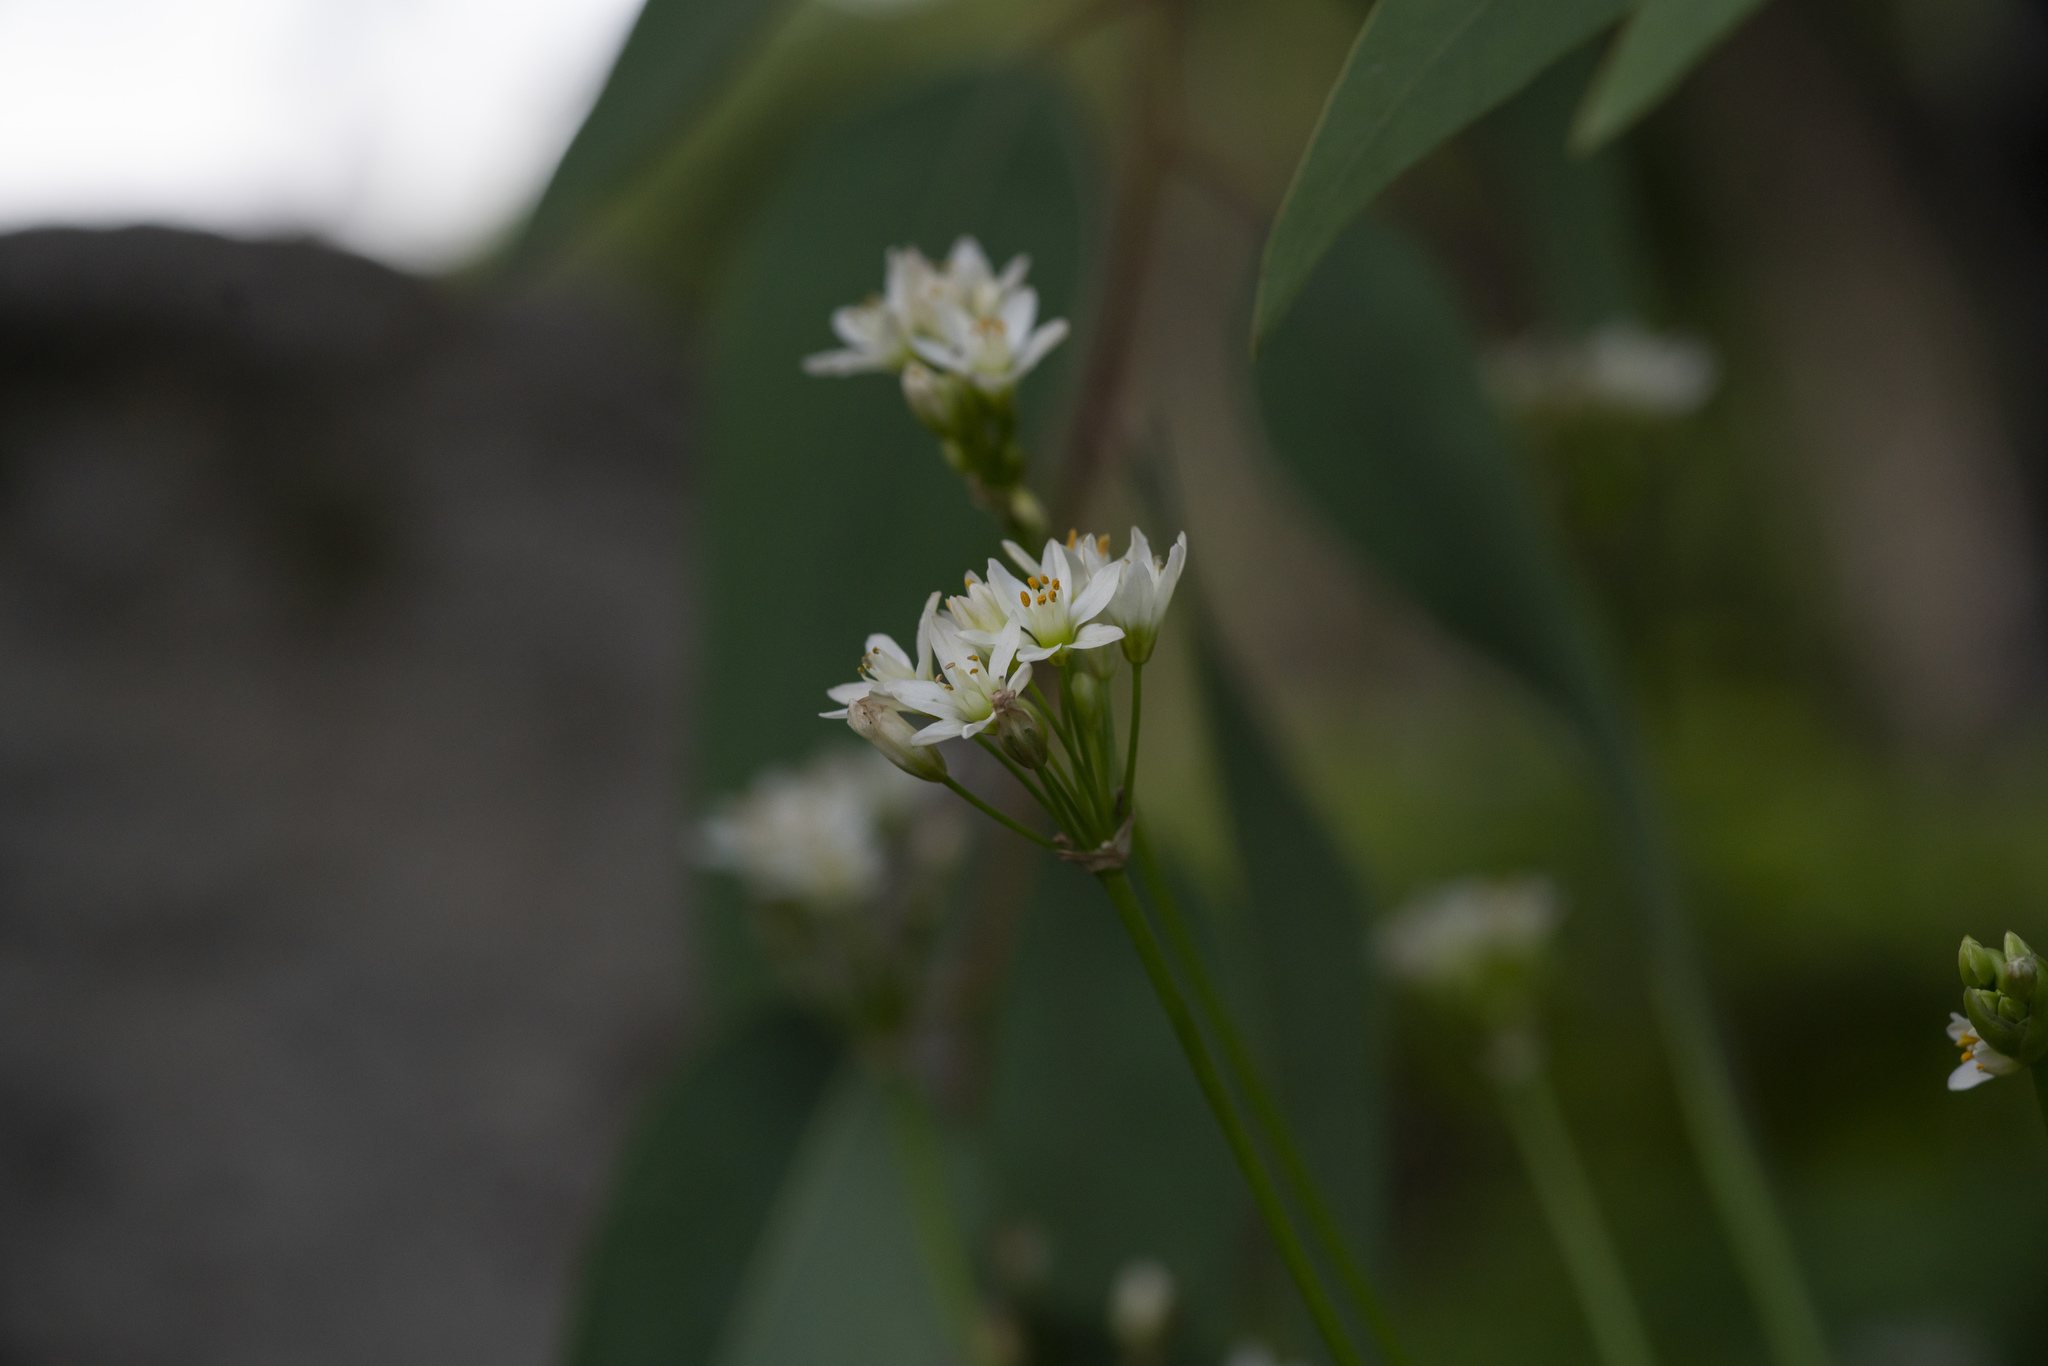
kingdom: Plantae
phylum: Tracheophyta
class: Liliopsida
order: Asparagales
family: Amaryllidaceae
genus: Nothoscordum
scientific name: Nothoscordum gracile
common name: Slender false garlic
